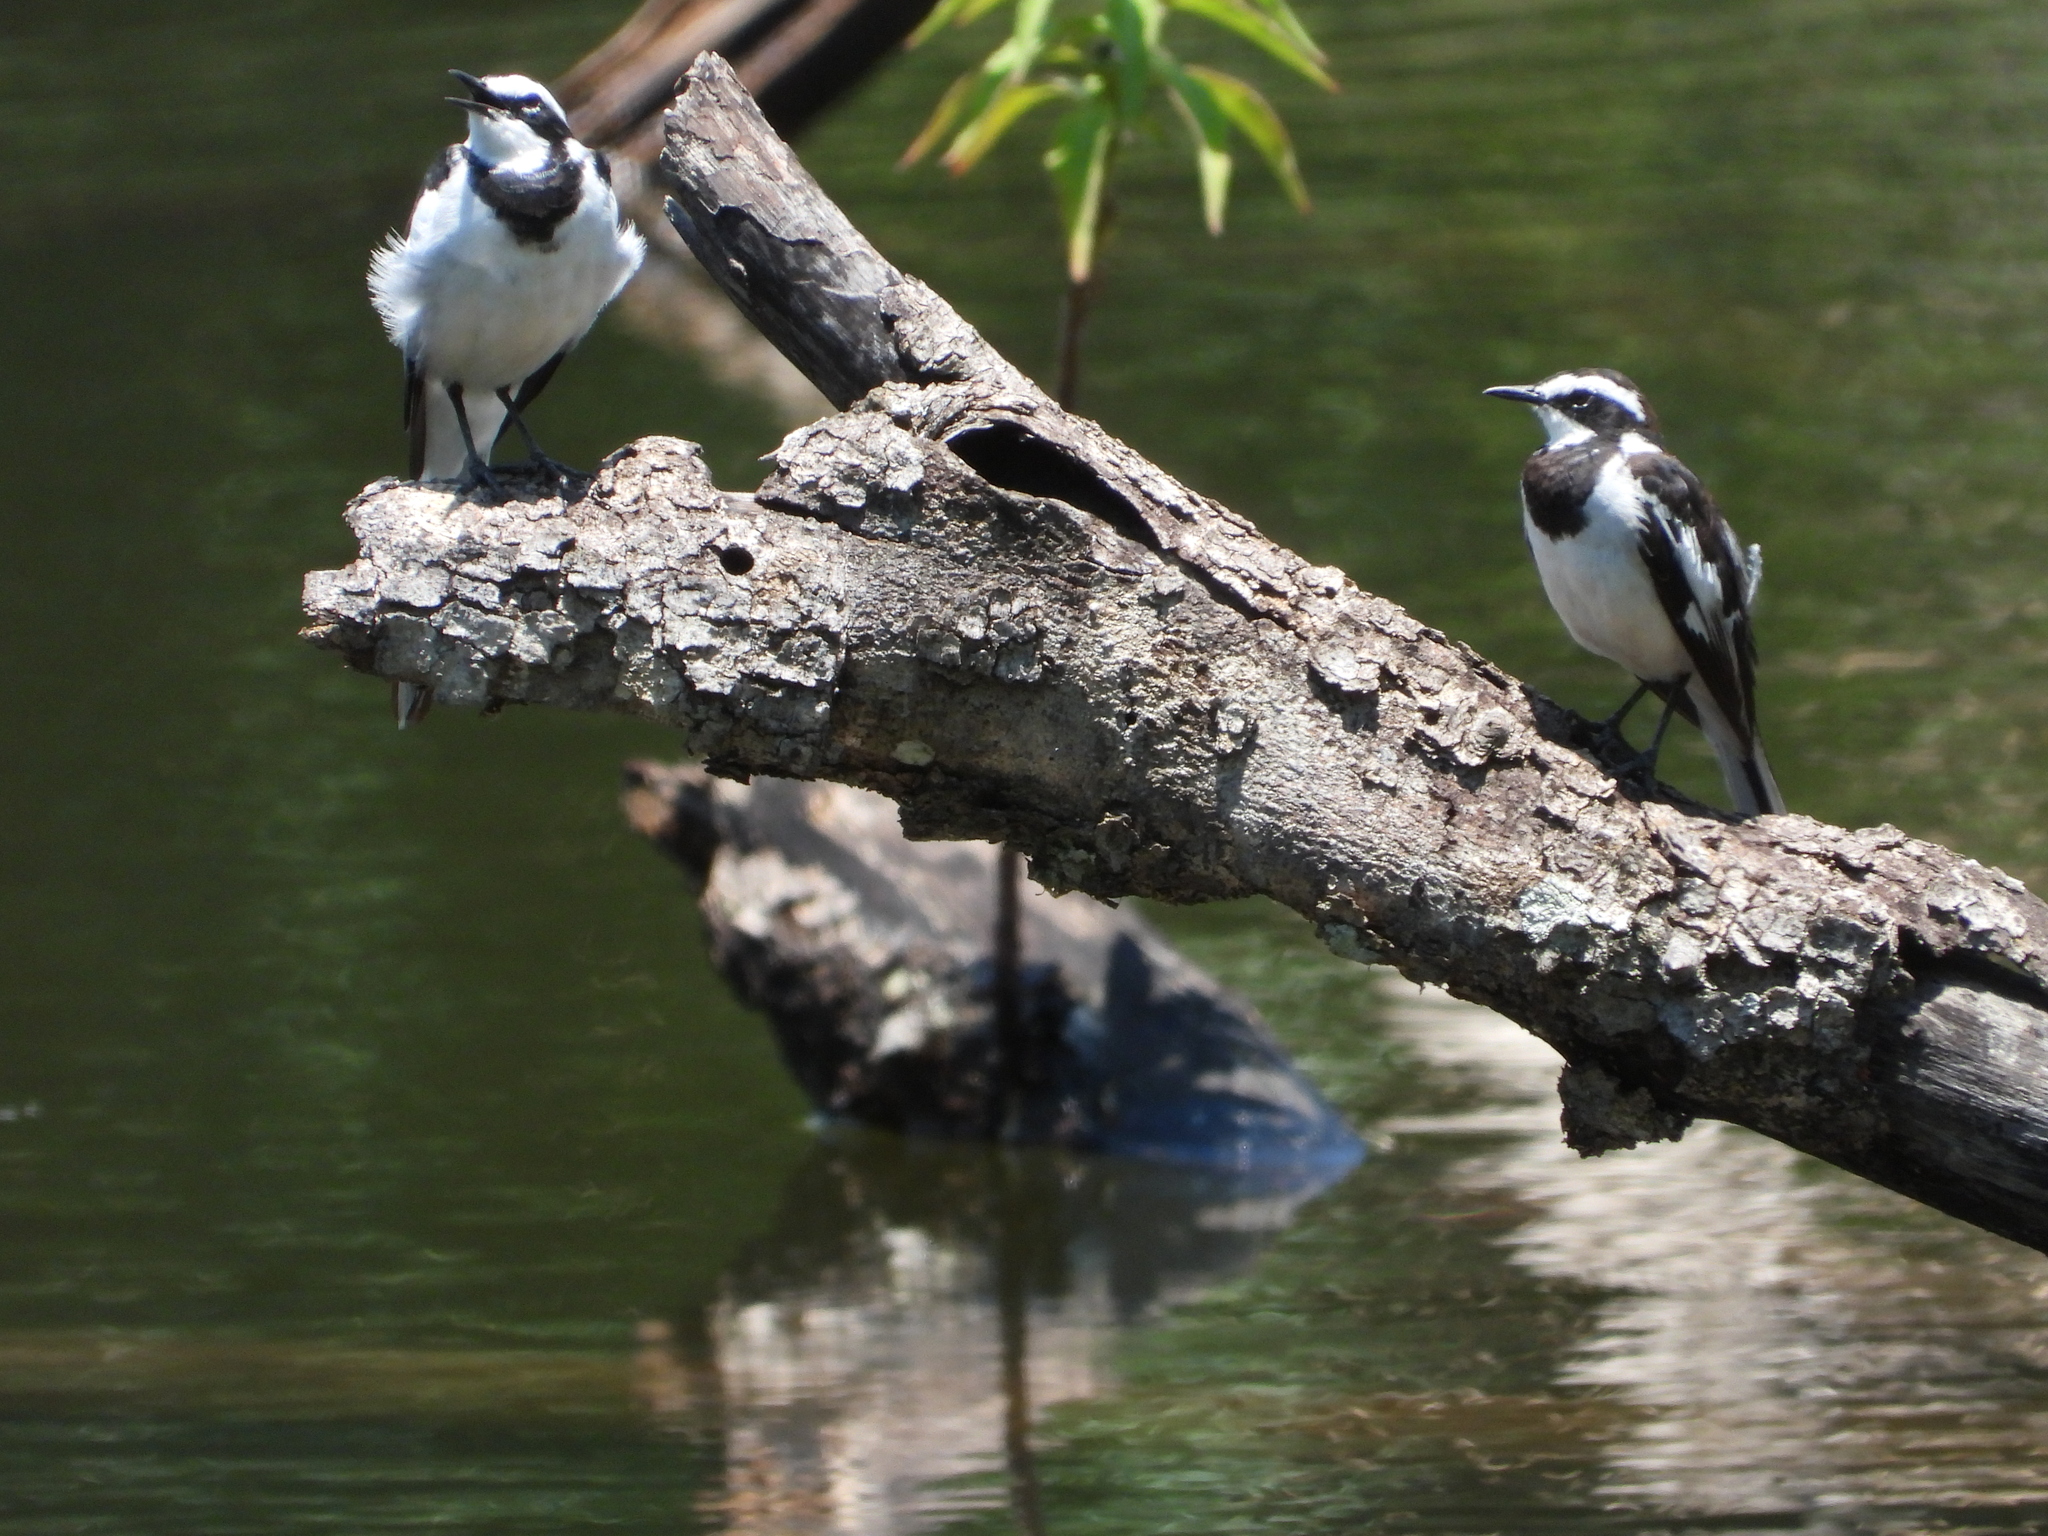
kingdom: Animalia
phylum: Chordata
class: Aves
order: Passeriformes
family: Motacillidae
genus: Motacilla
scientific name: Motacilla aguimp
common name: African pied wagtail
